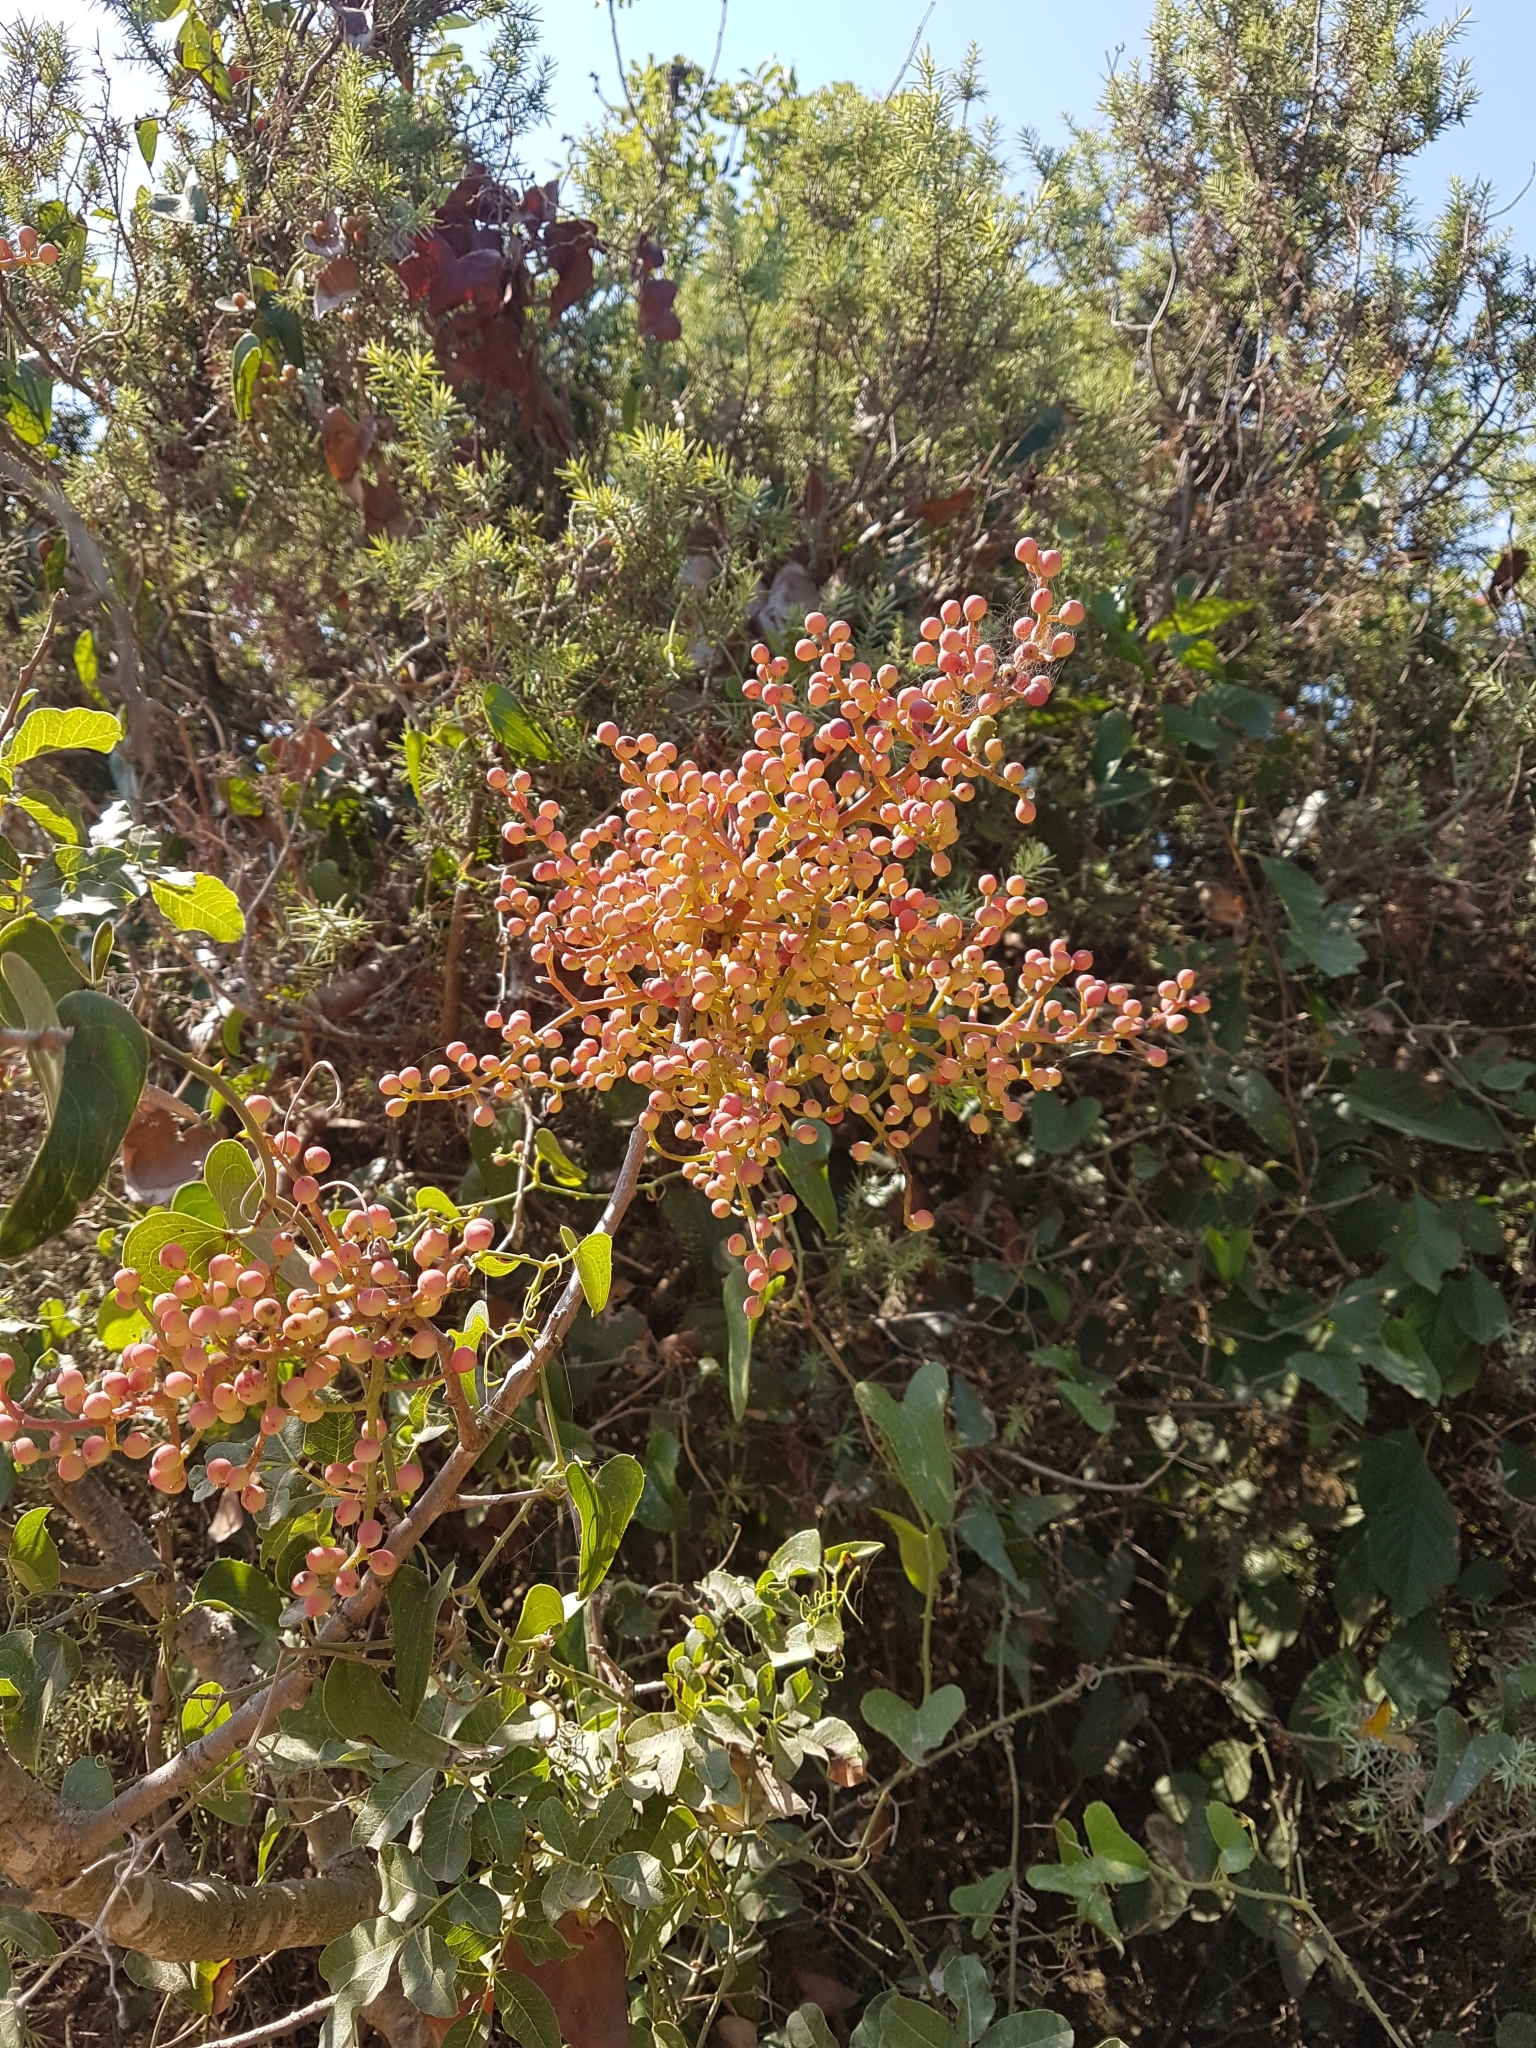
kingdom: Plantae
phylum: Tracheophyta
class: Magnoliopsida
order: Sapindales
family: Anacardiaceae
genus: Pistacia
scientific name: Pistacia terebinthus
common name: Terebinth
